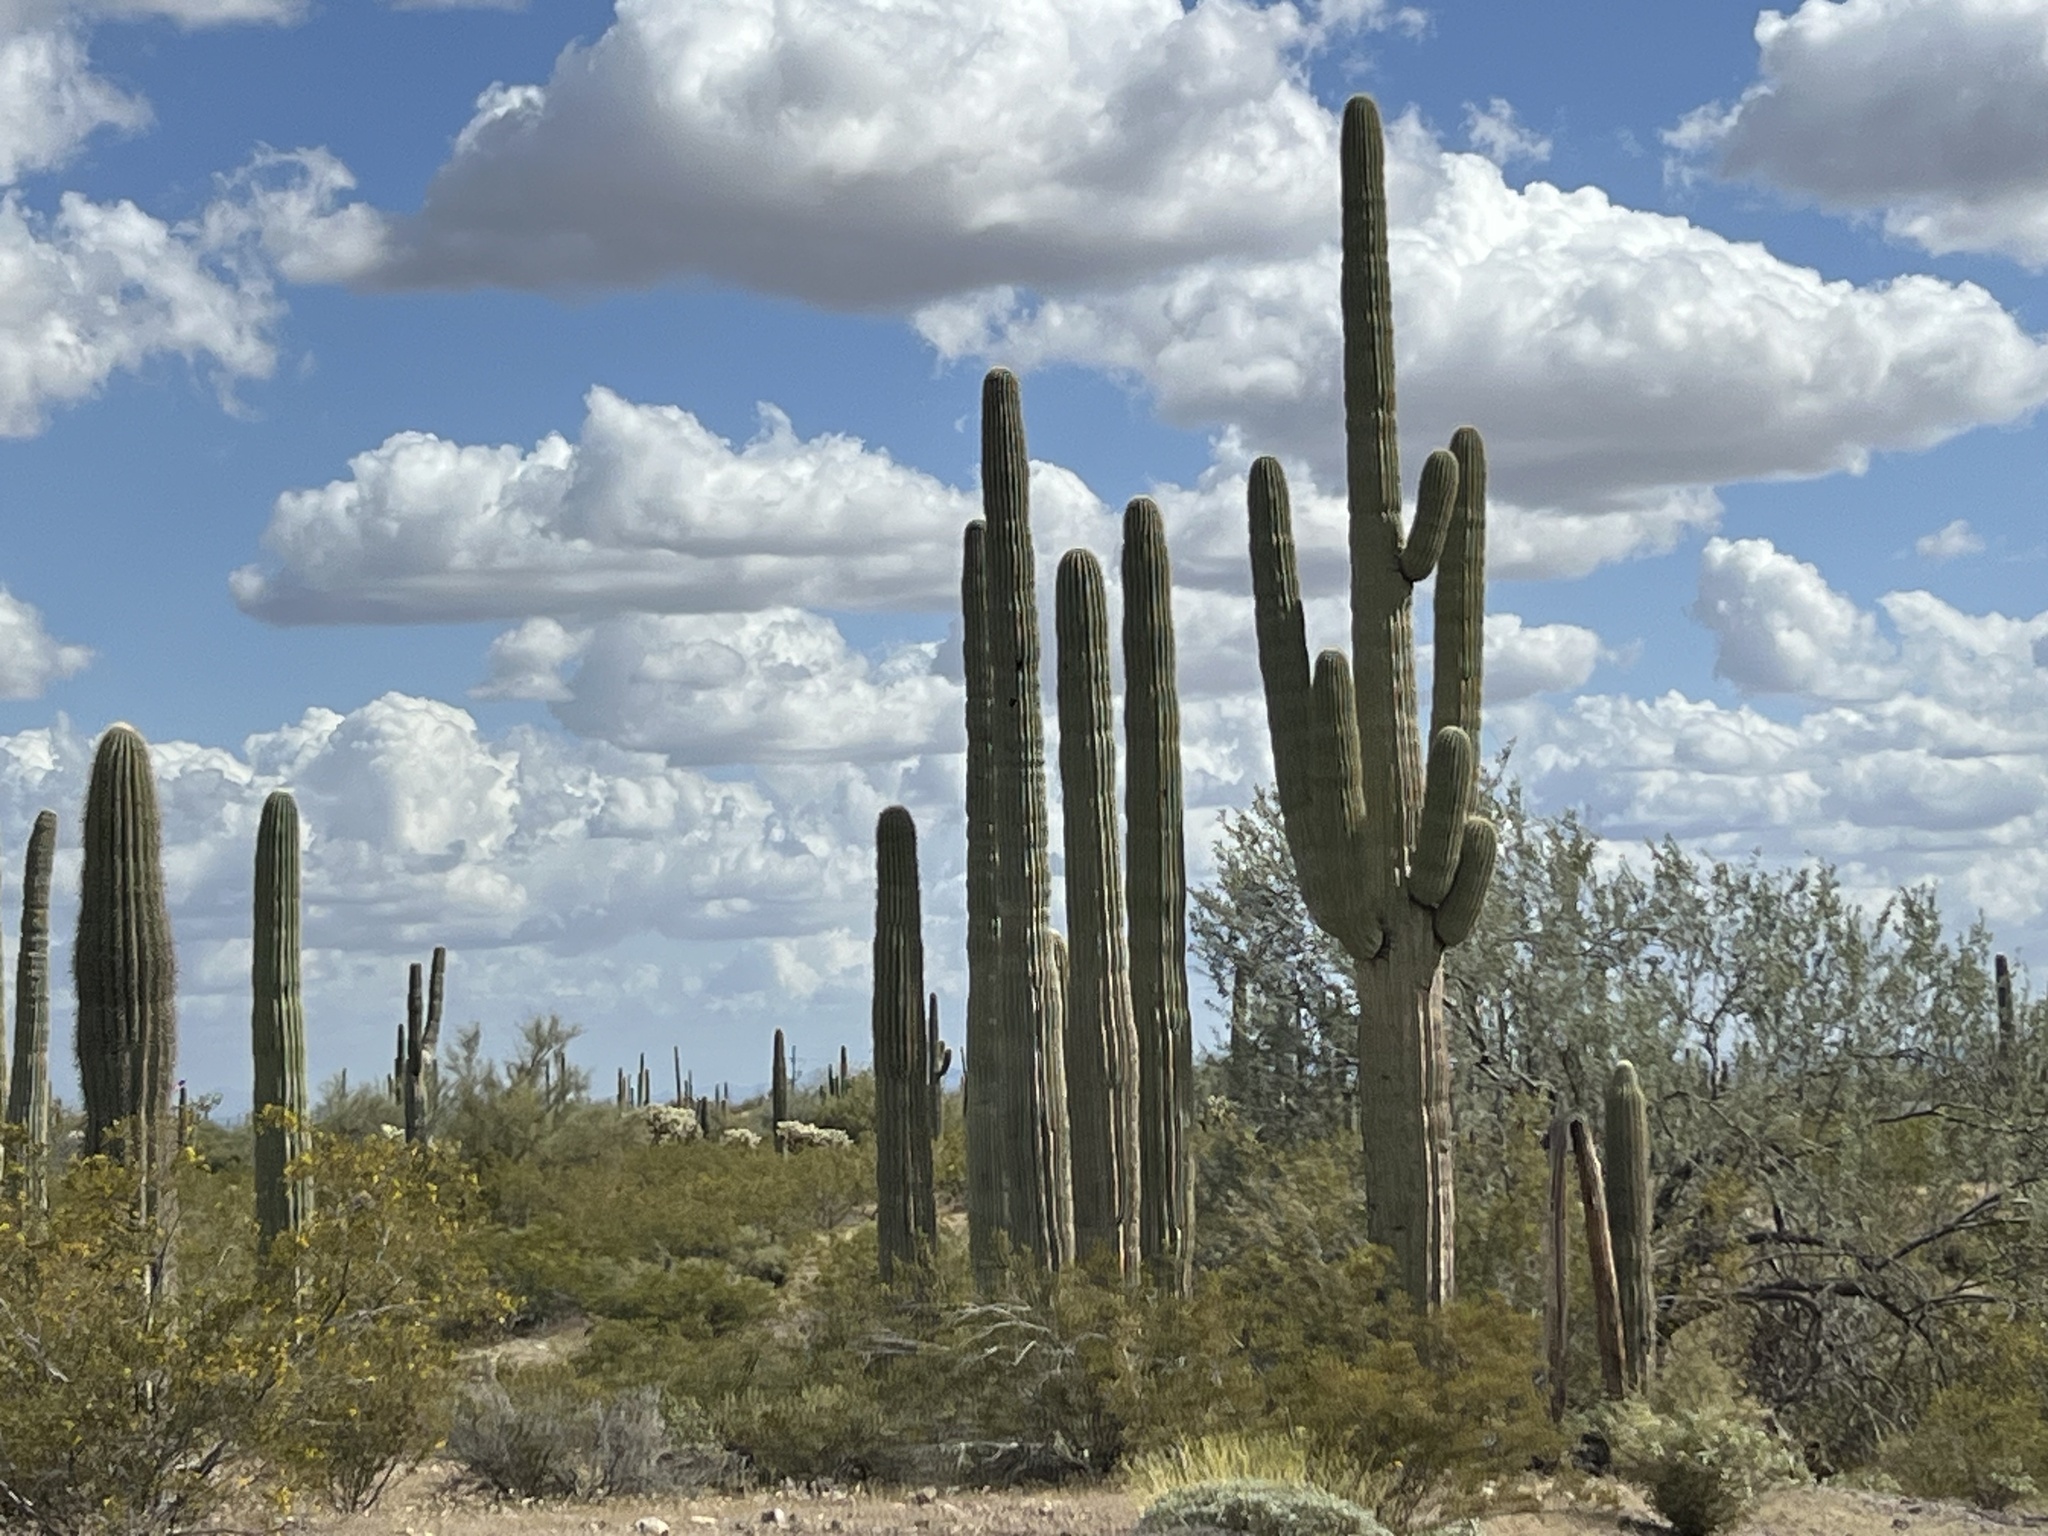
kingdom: Plantae
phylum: Tracheophyta
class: Magnoliopsida
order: Caryophyllales
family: Cactaceae
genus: Carnegiea
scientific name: Carnegiea gigantea
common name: Saguaro
